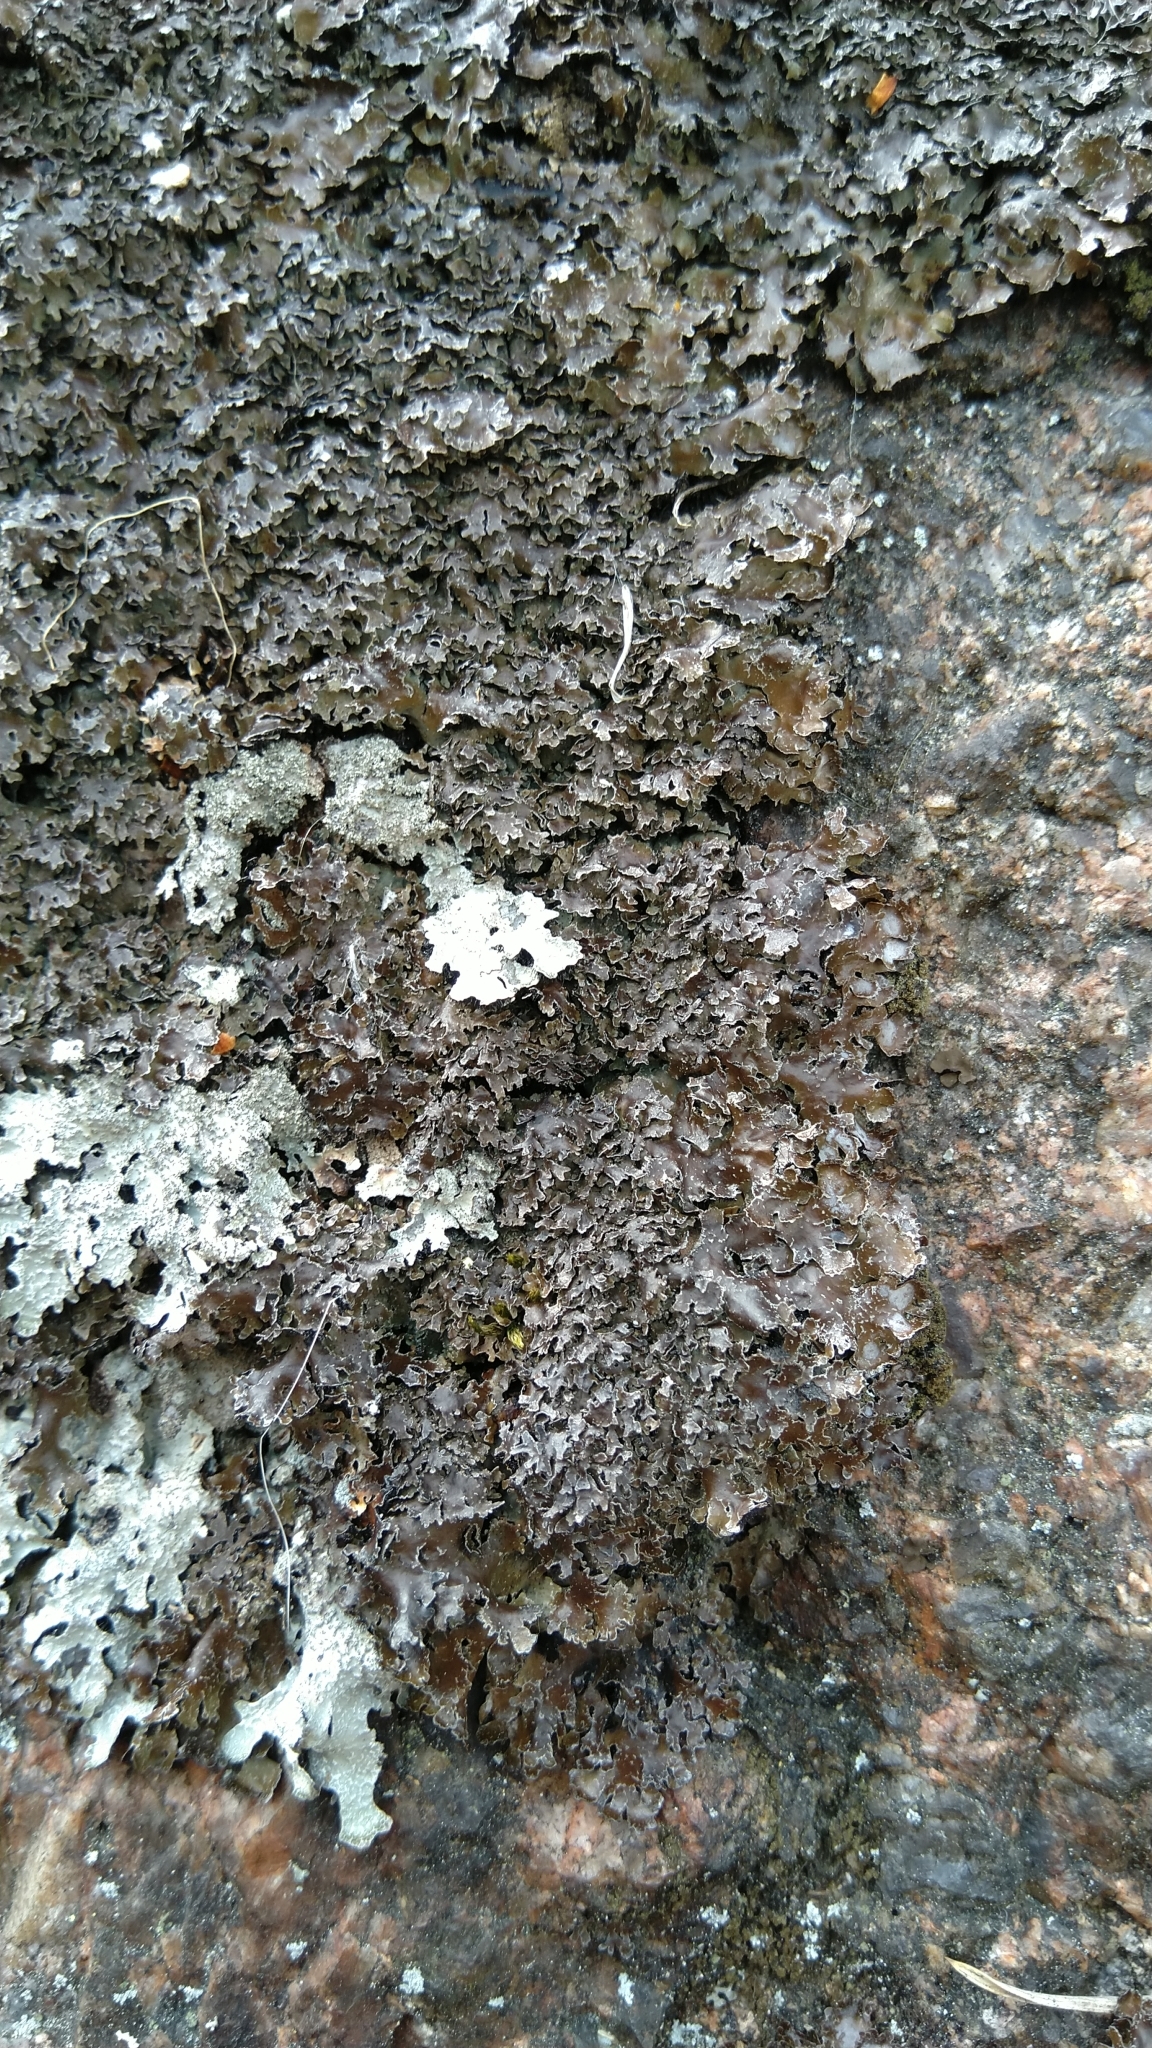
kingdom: Fungi
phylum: Ascomycota
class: Lecanoromycetes
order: Lecanorales
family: Parmeliaceae
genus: Parmelia
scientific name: Parmelia omphalodes
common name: Smoky crottle
